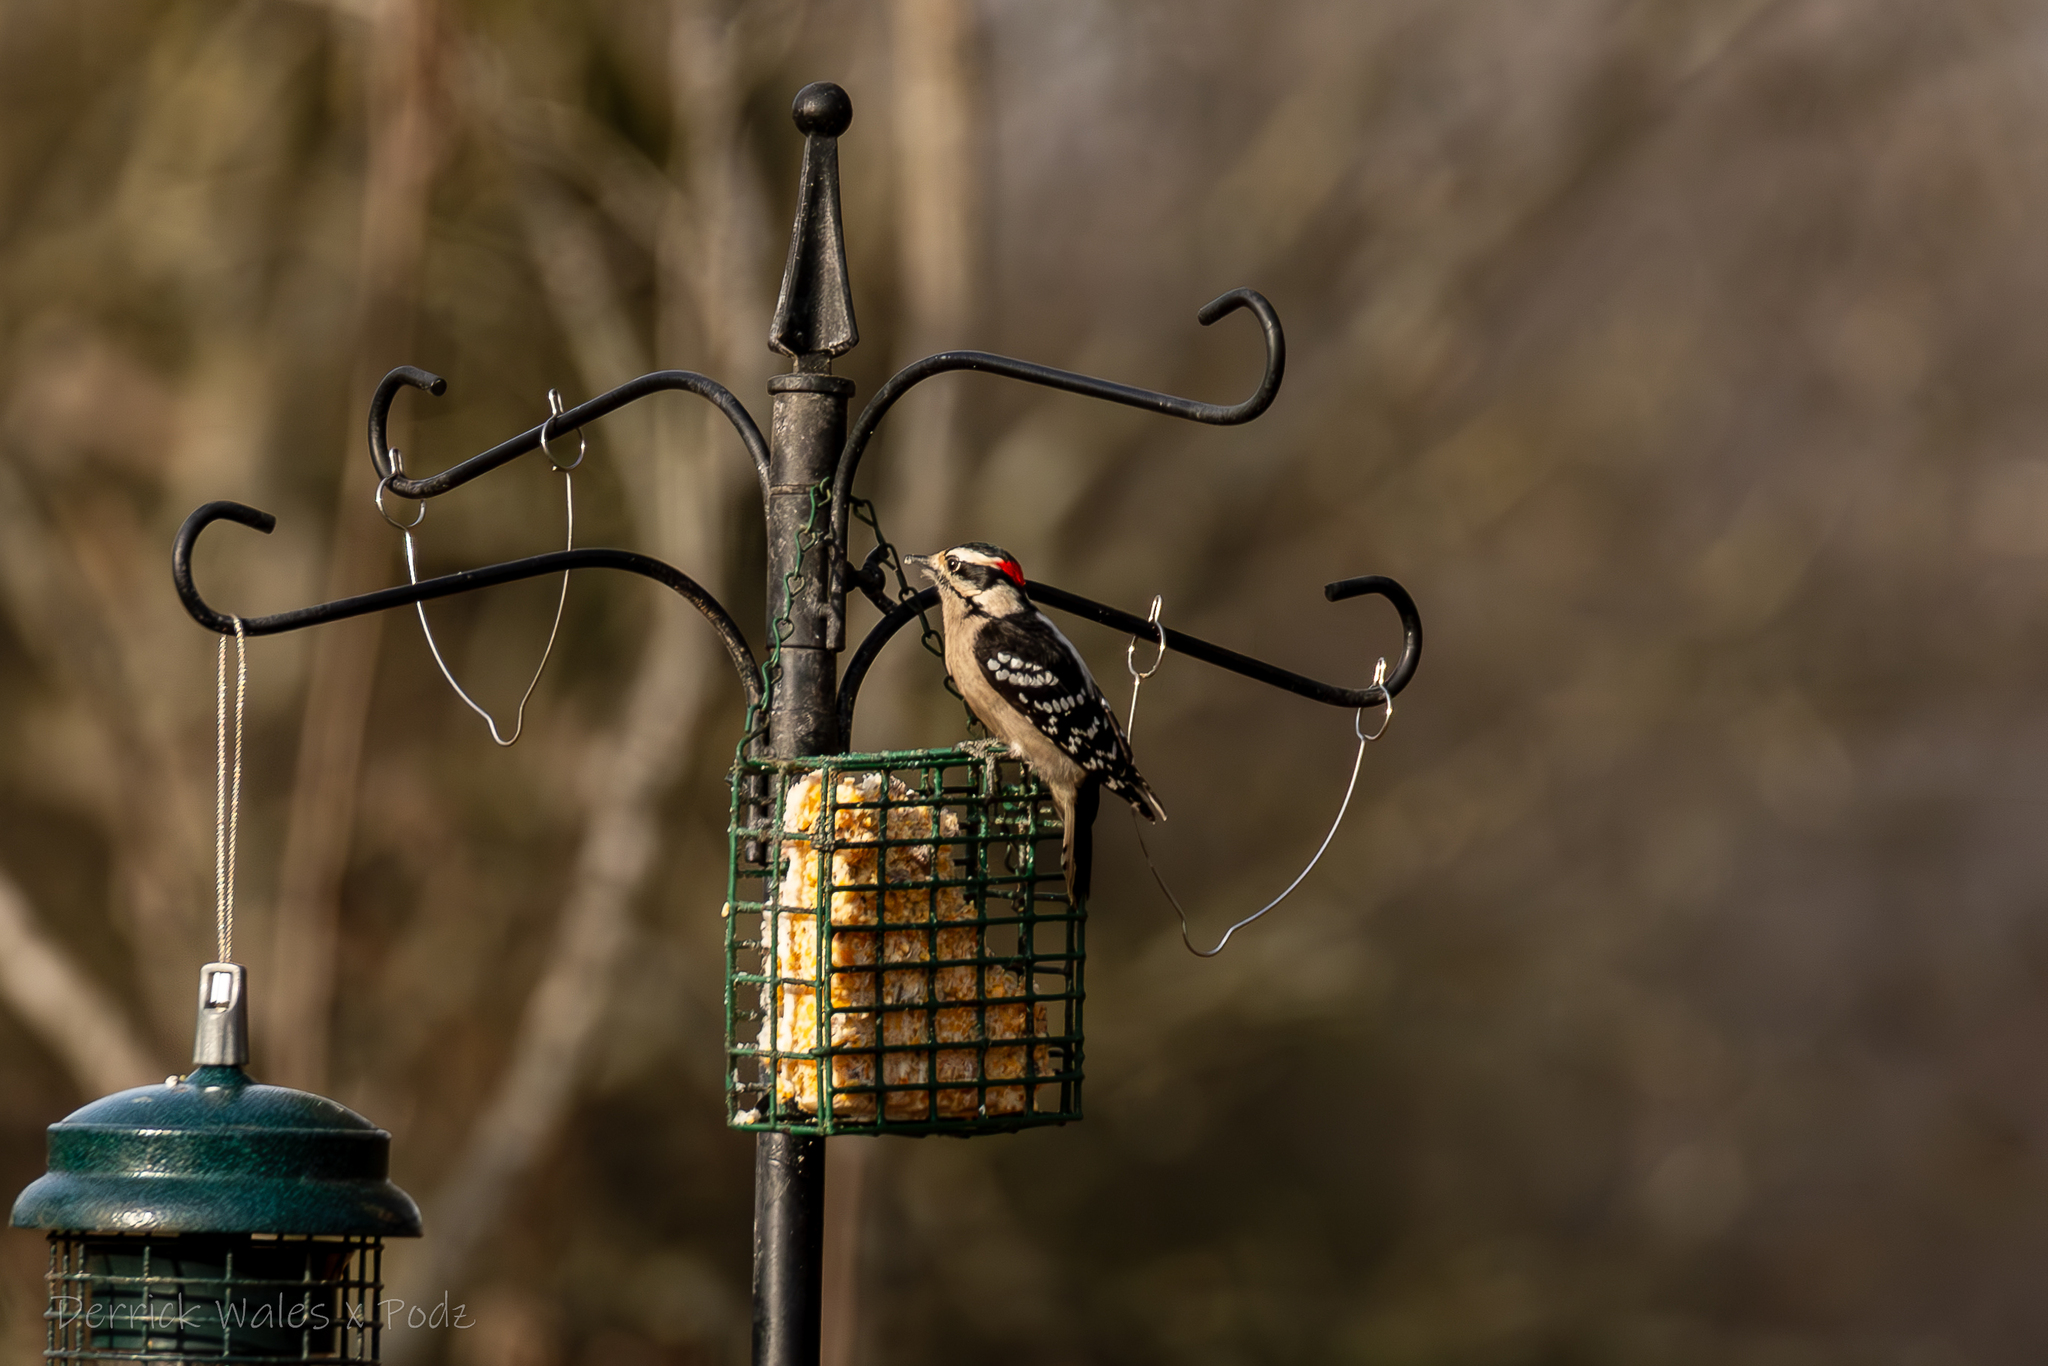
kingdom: Animalia
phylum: Chordata
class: Aves
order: Piciformes
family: Picidae
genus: Dryobates
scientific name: Dryobates pubescens
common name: Downy woodpecker
